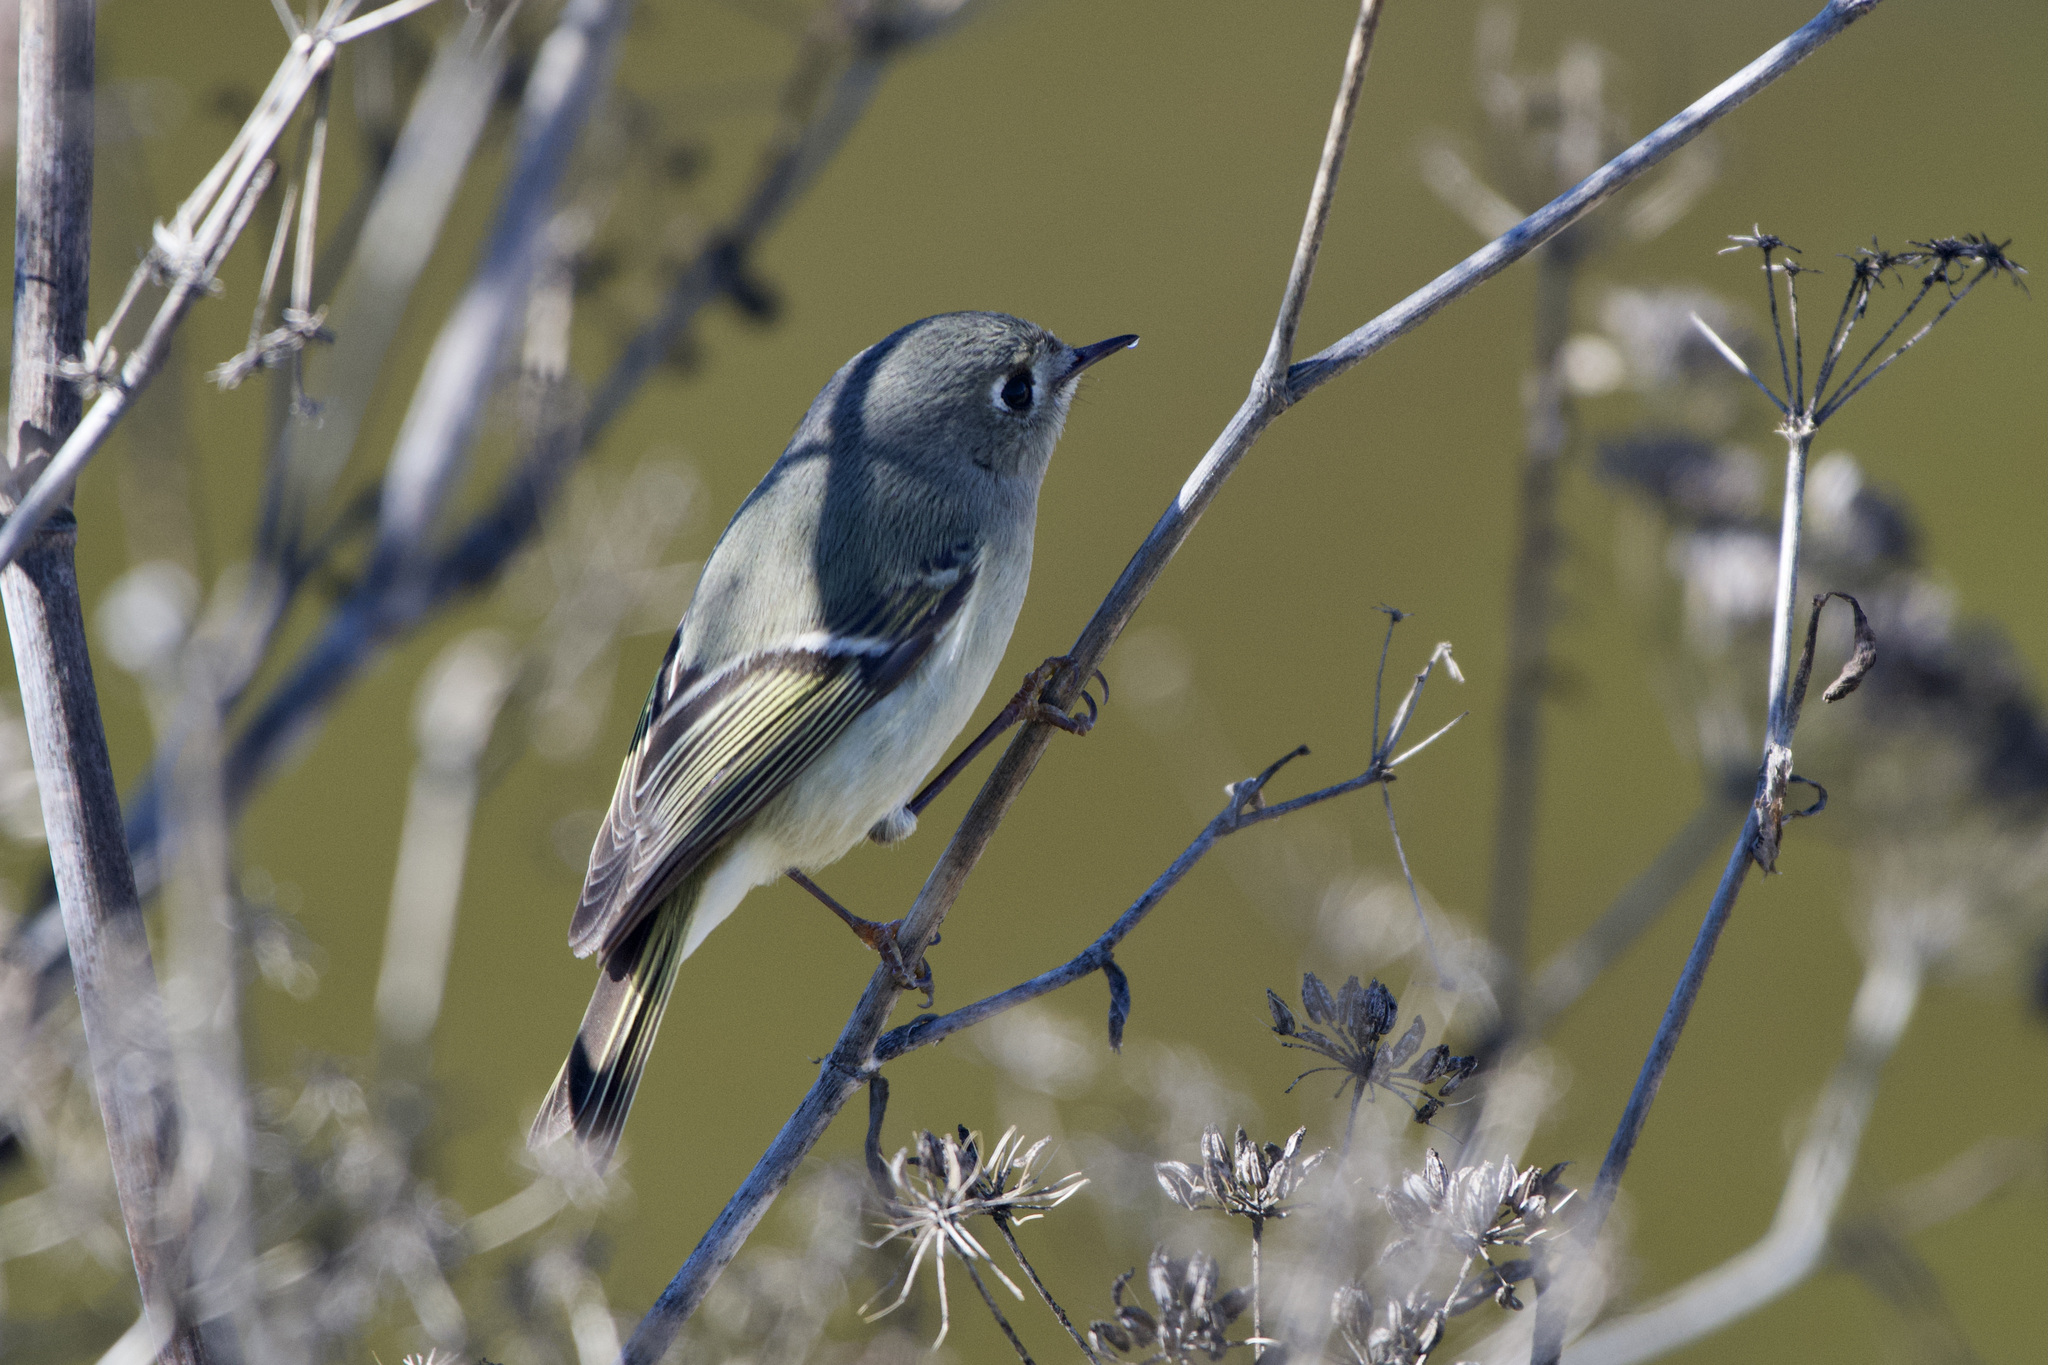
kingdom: Animalia
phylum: Chordata
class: Aves
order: Passeriformes
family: Regulidae
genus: Regulus
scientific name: Regulus calendula
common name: Ruby-crowned kinglet
